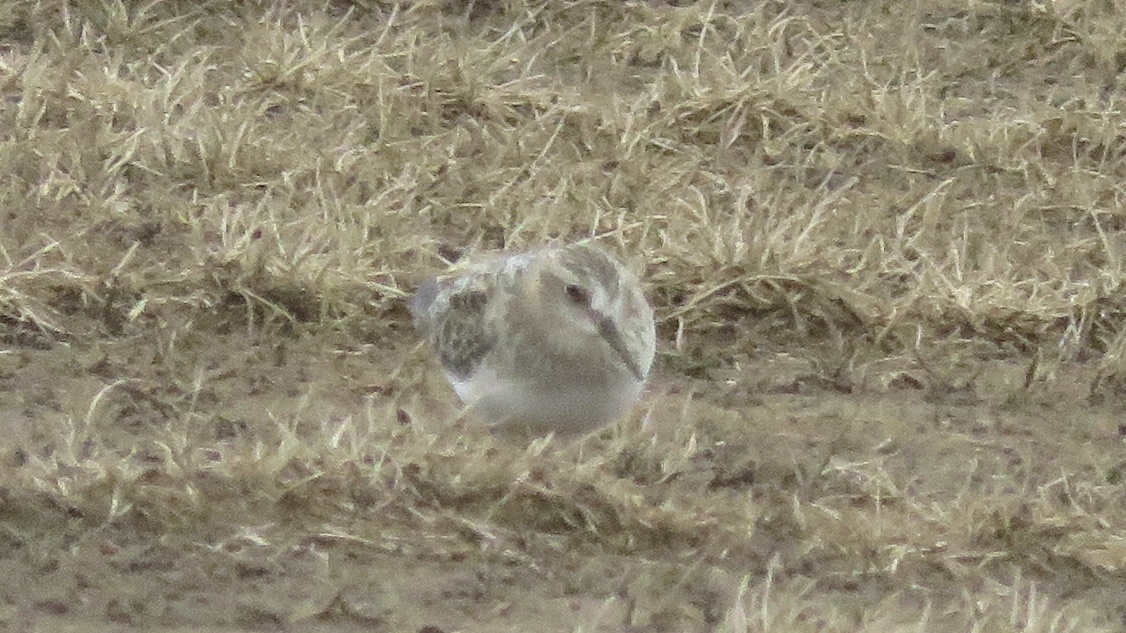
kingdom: Animalia
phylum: Chordata
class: Aves
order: Charadriiformes
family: Scolopacidae
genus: Calidris
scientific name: Calidris bairdii
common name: Baird's sandpiper
